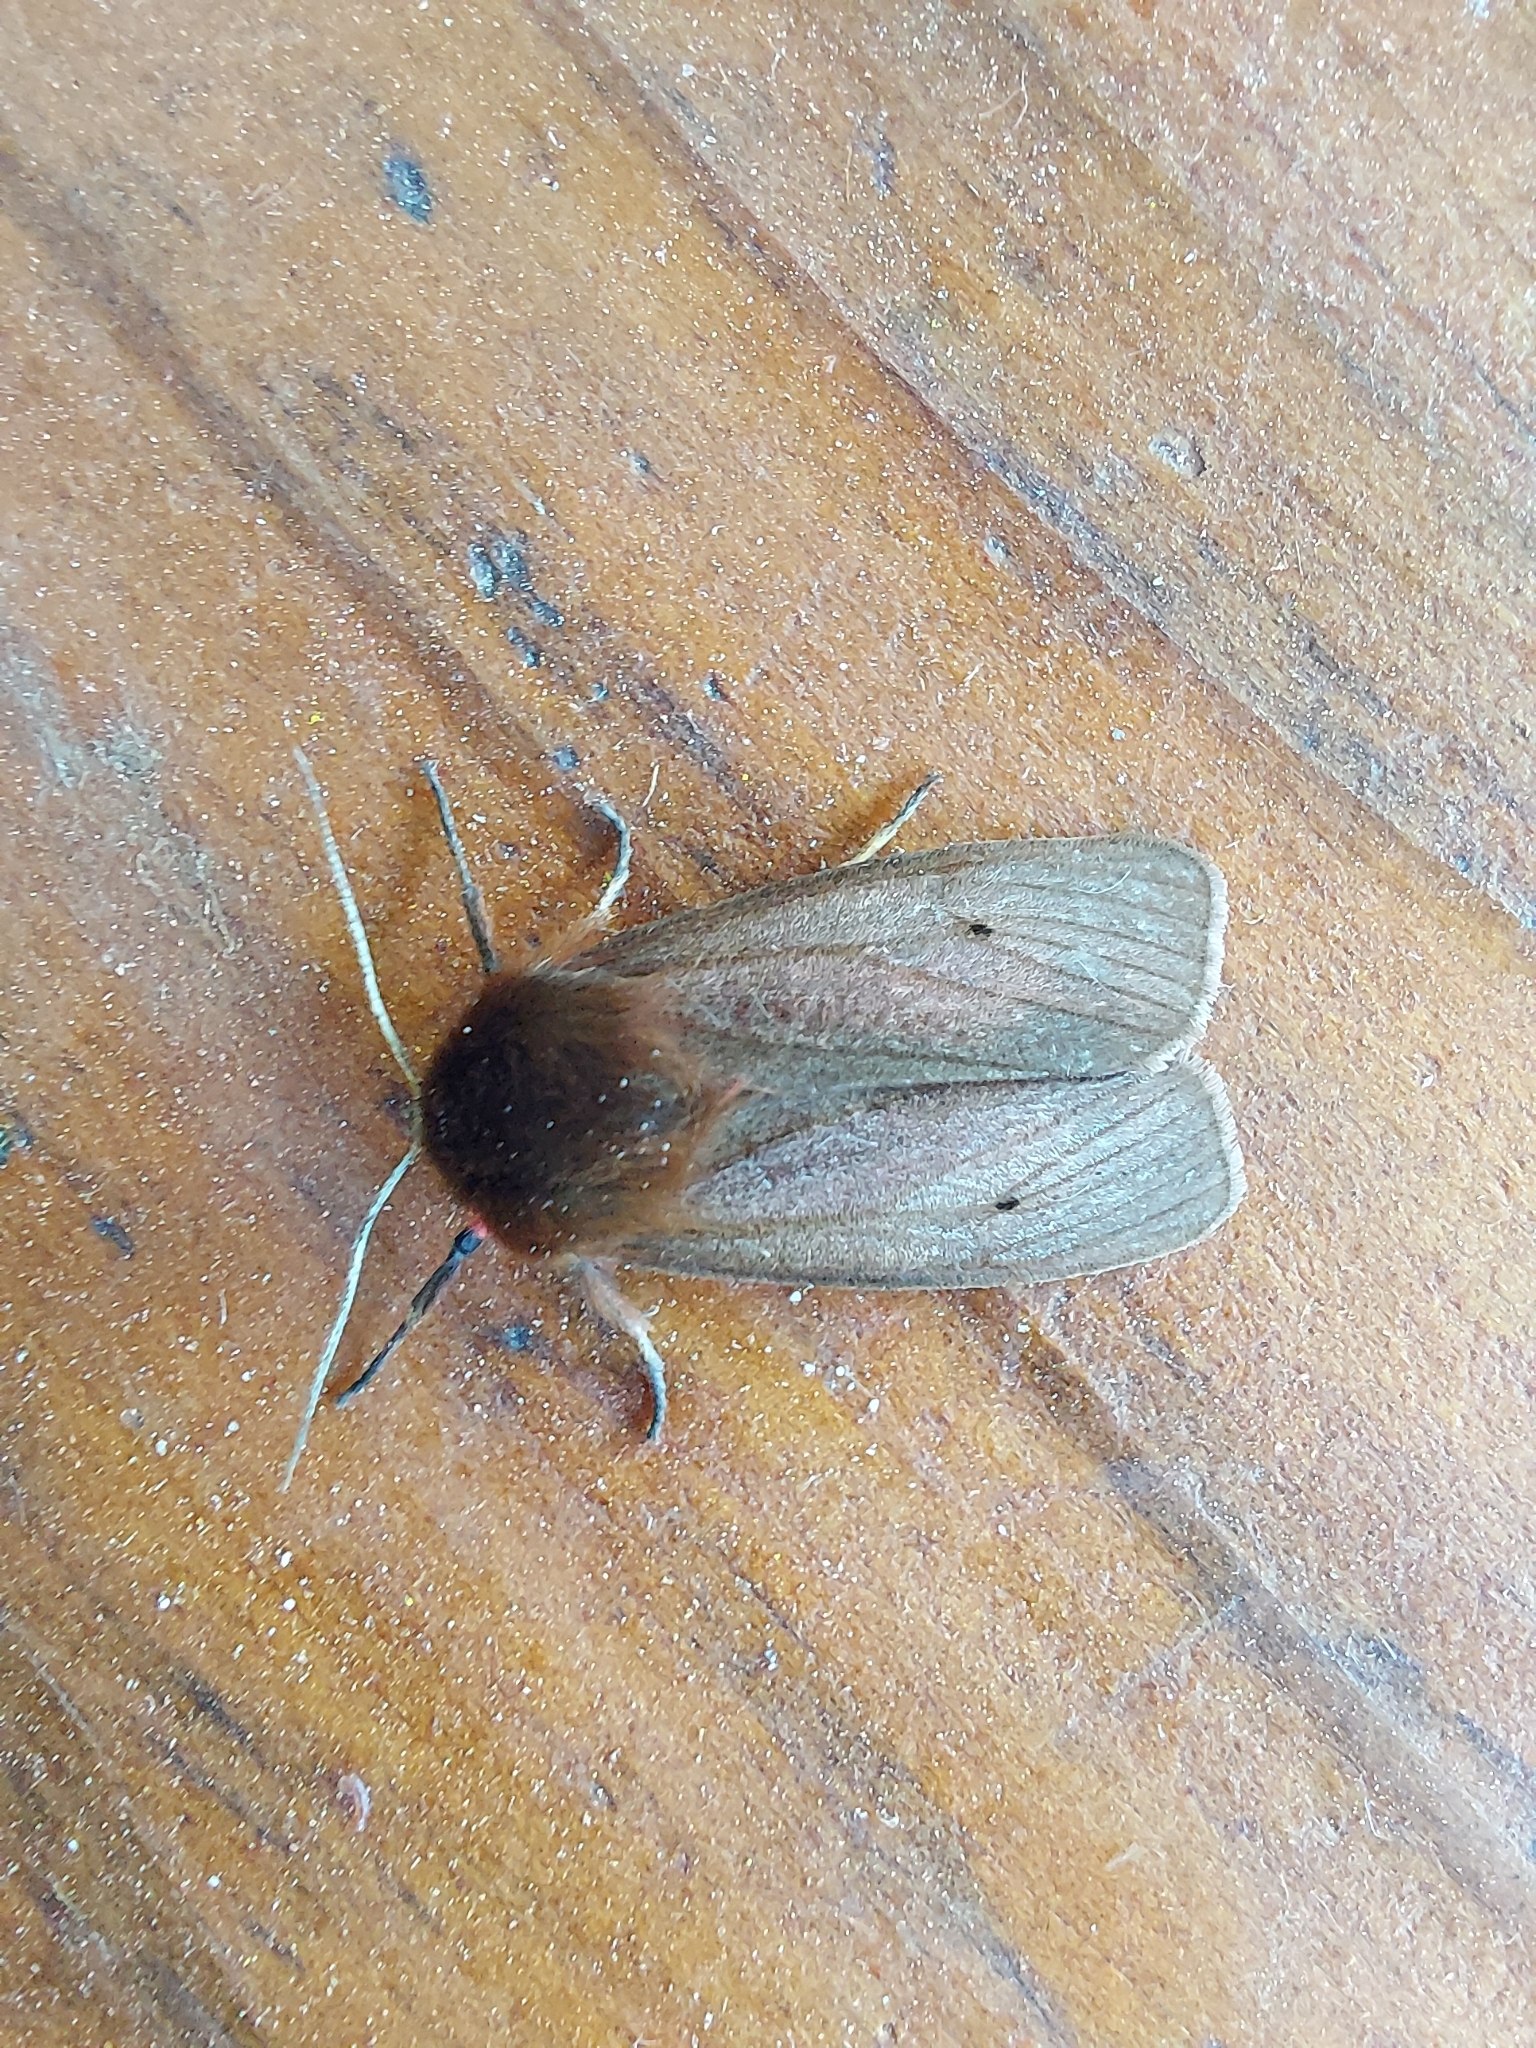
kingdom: Animalia
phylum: Arthropoda
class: Insecta
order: Lepidoptera
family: Erebidae
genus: Phragmatobia
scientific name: Phragmatobia fuliginosa
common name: Ruby tiger
